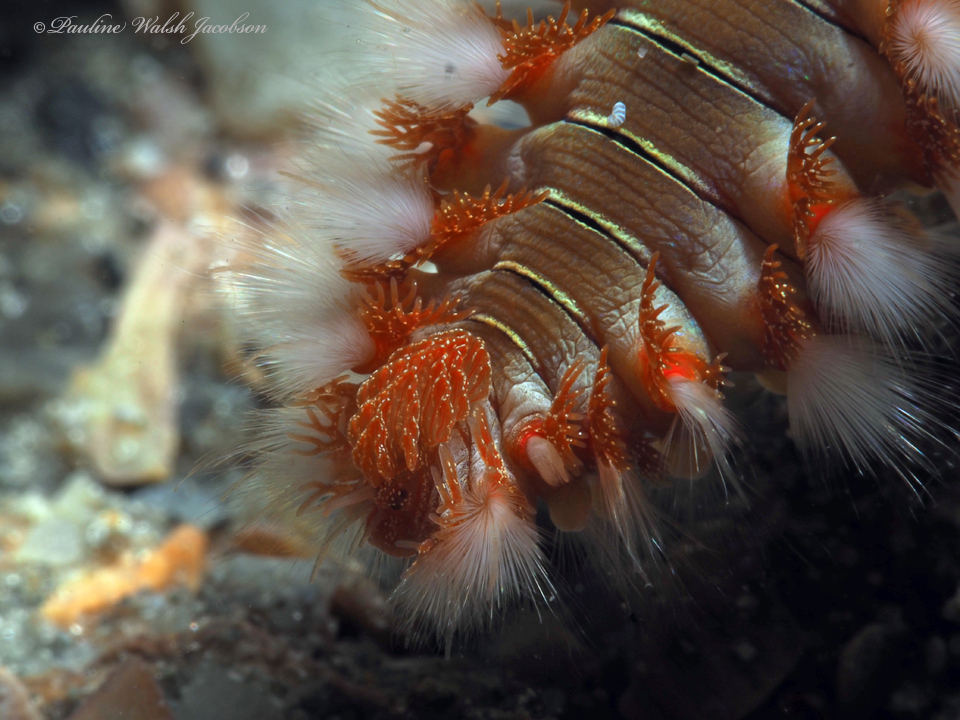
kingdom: Animalia
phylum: Annelida
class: Polychaeta
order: Amphinomida
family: Amphinomidae
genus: Hermodice
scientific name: Hermodice carunculata
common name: Bearded fireworm
